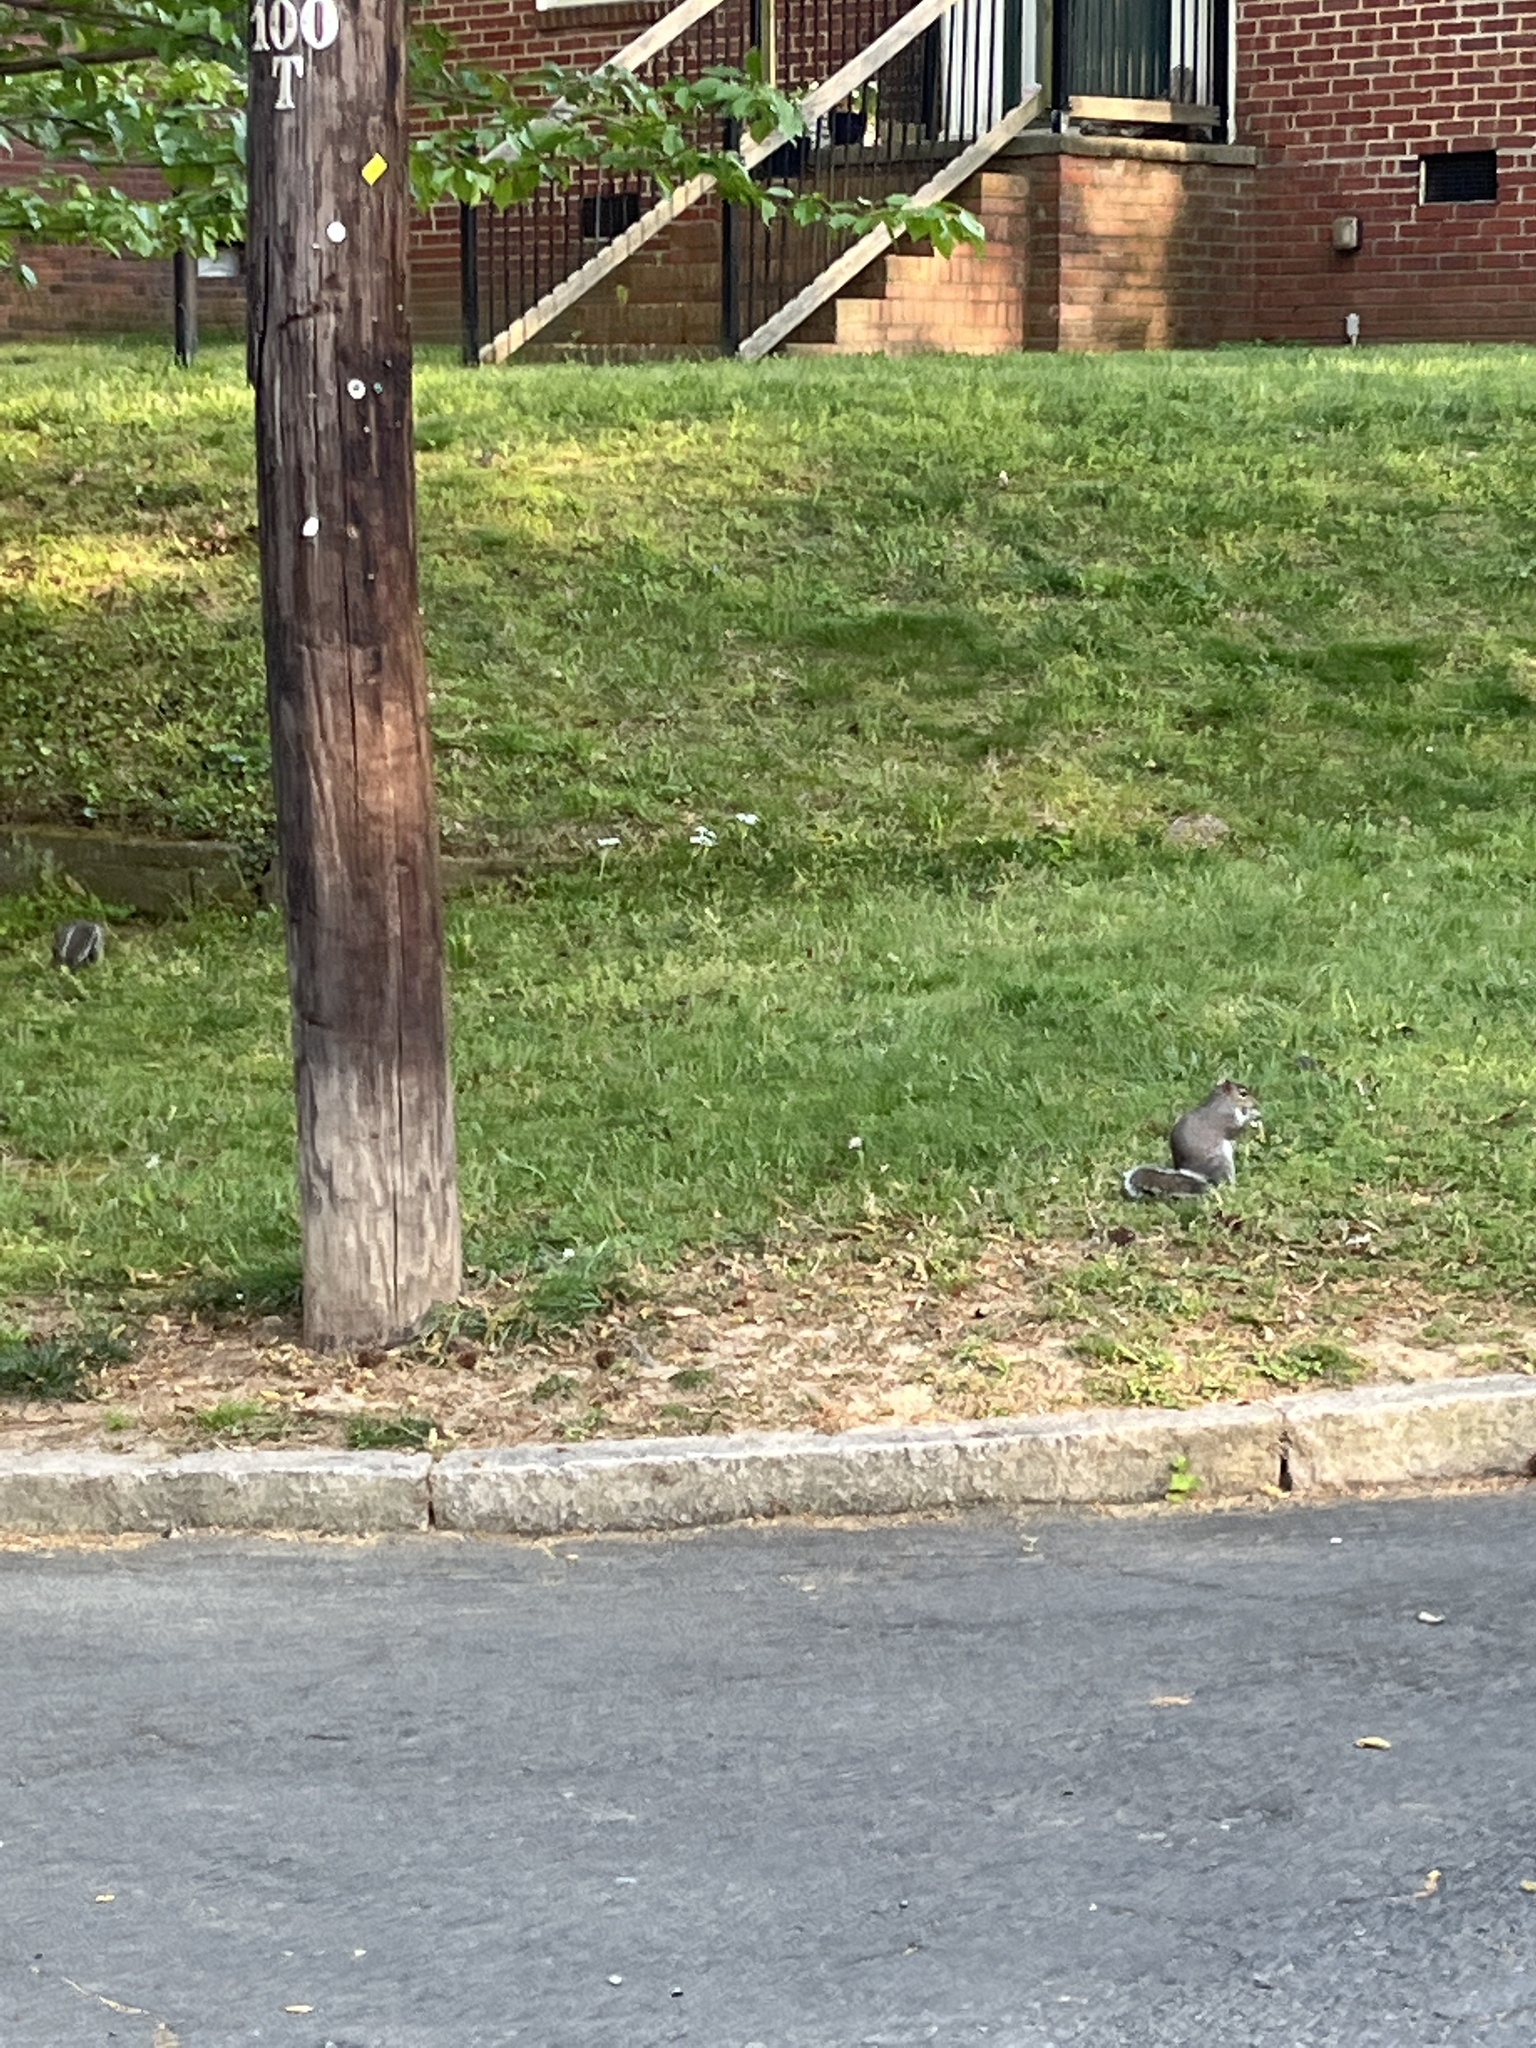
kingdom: Animalia
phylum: Chordata
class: Mammalia
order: Rodentia
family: Sciuridae
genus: Sciurus
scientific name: Sciurus carolinensis
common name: Eastern gray squirrel
